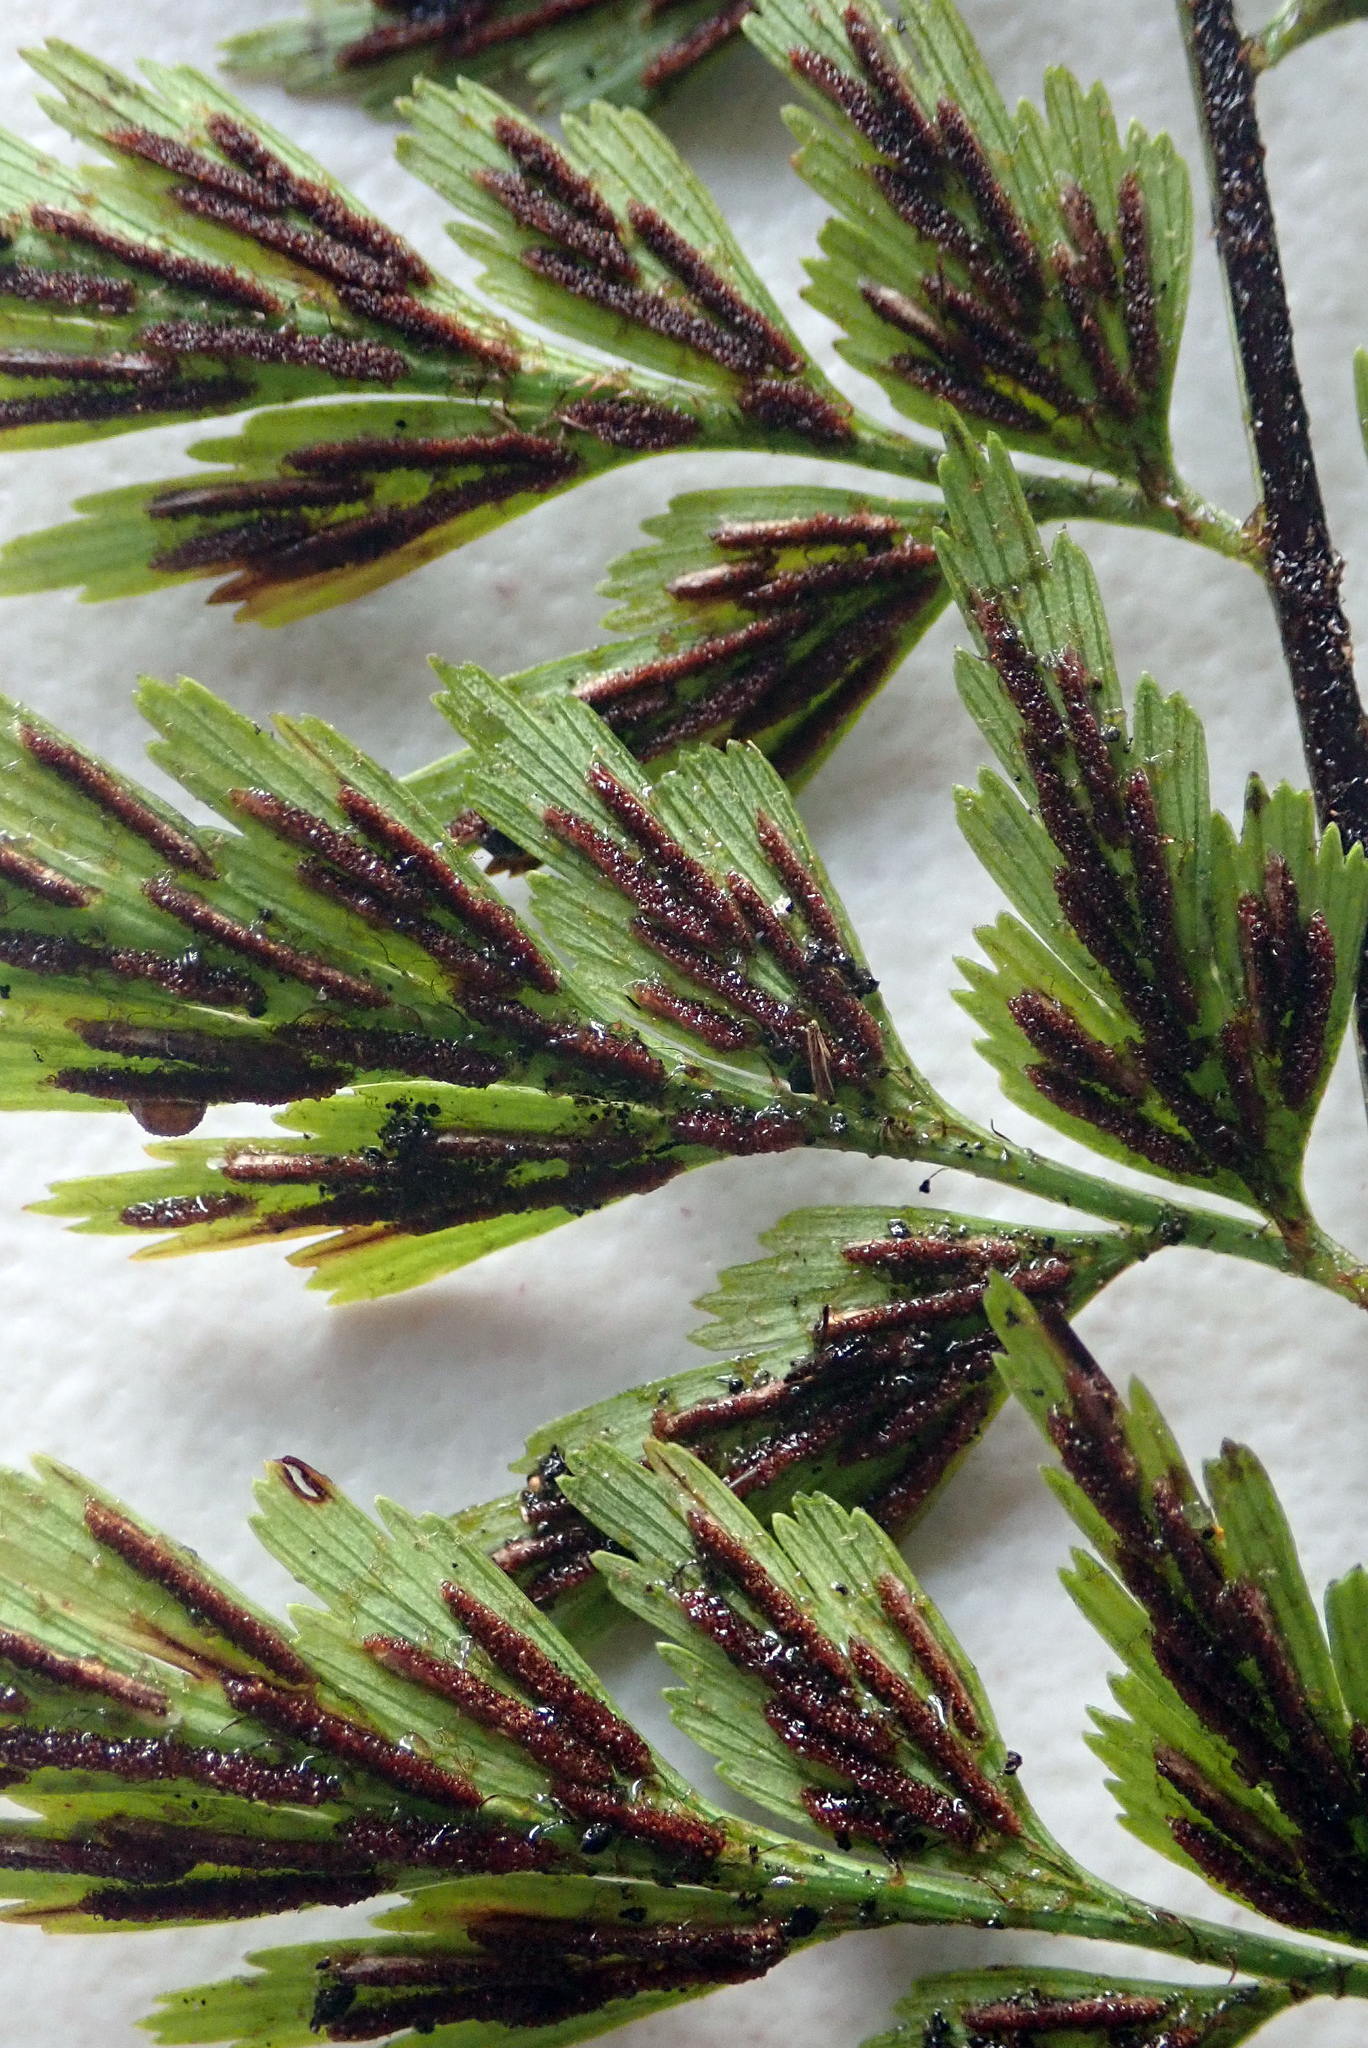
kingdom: Plantae
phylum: Tracheophyta
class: Polypodiopsida
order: Polypodiales
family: Aspleniaceae
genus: Asplenium
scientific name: Asplenium aethiopicum
